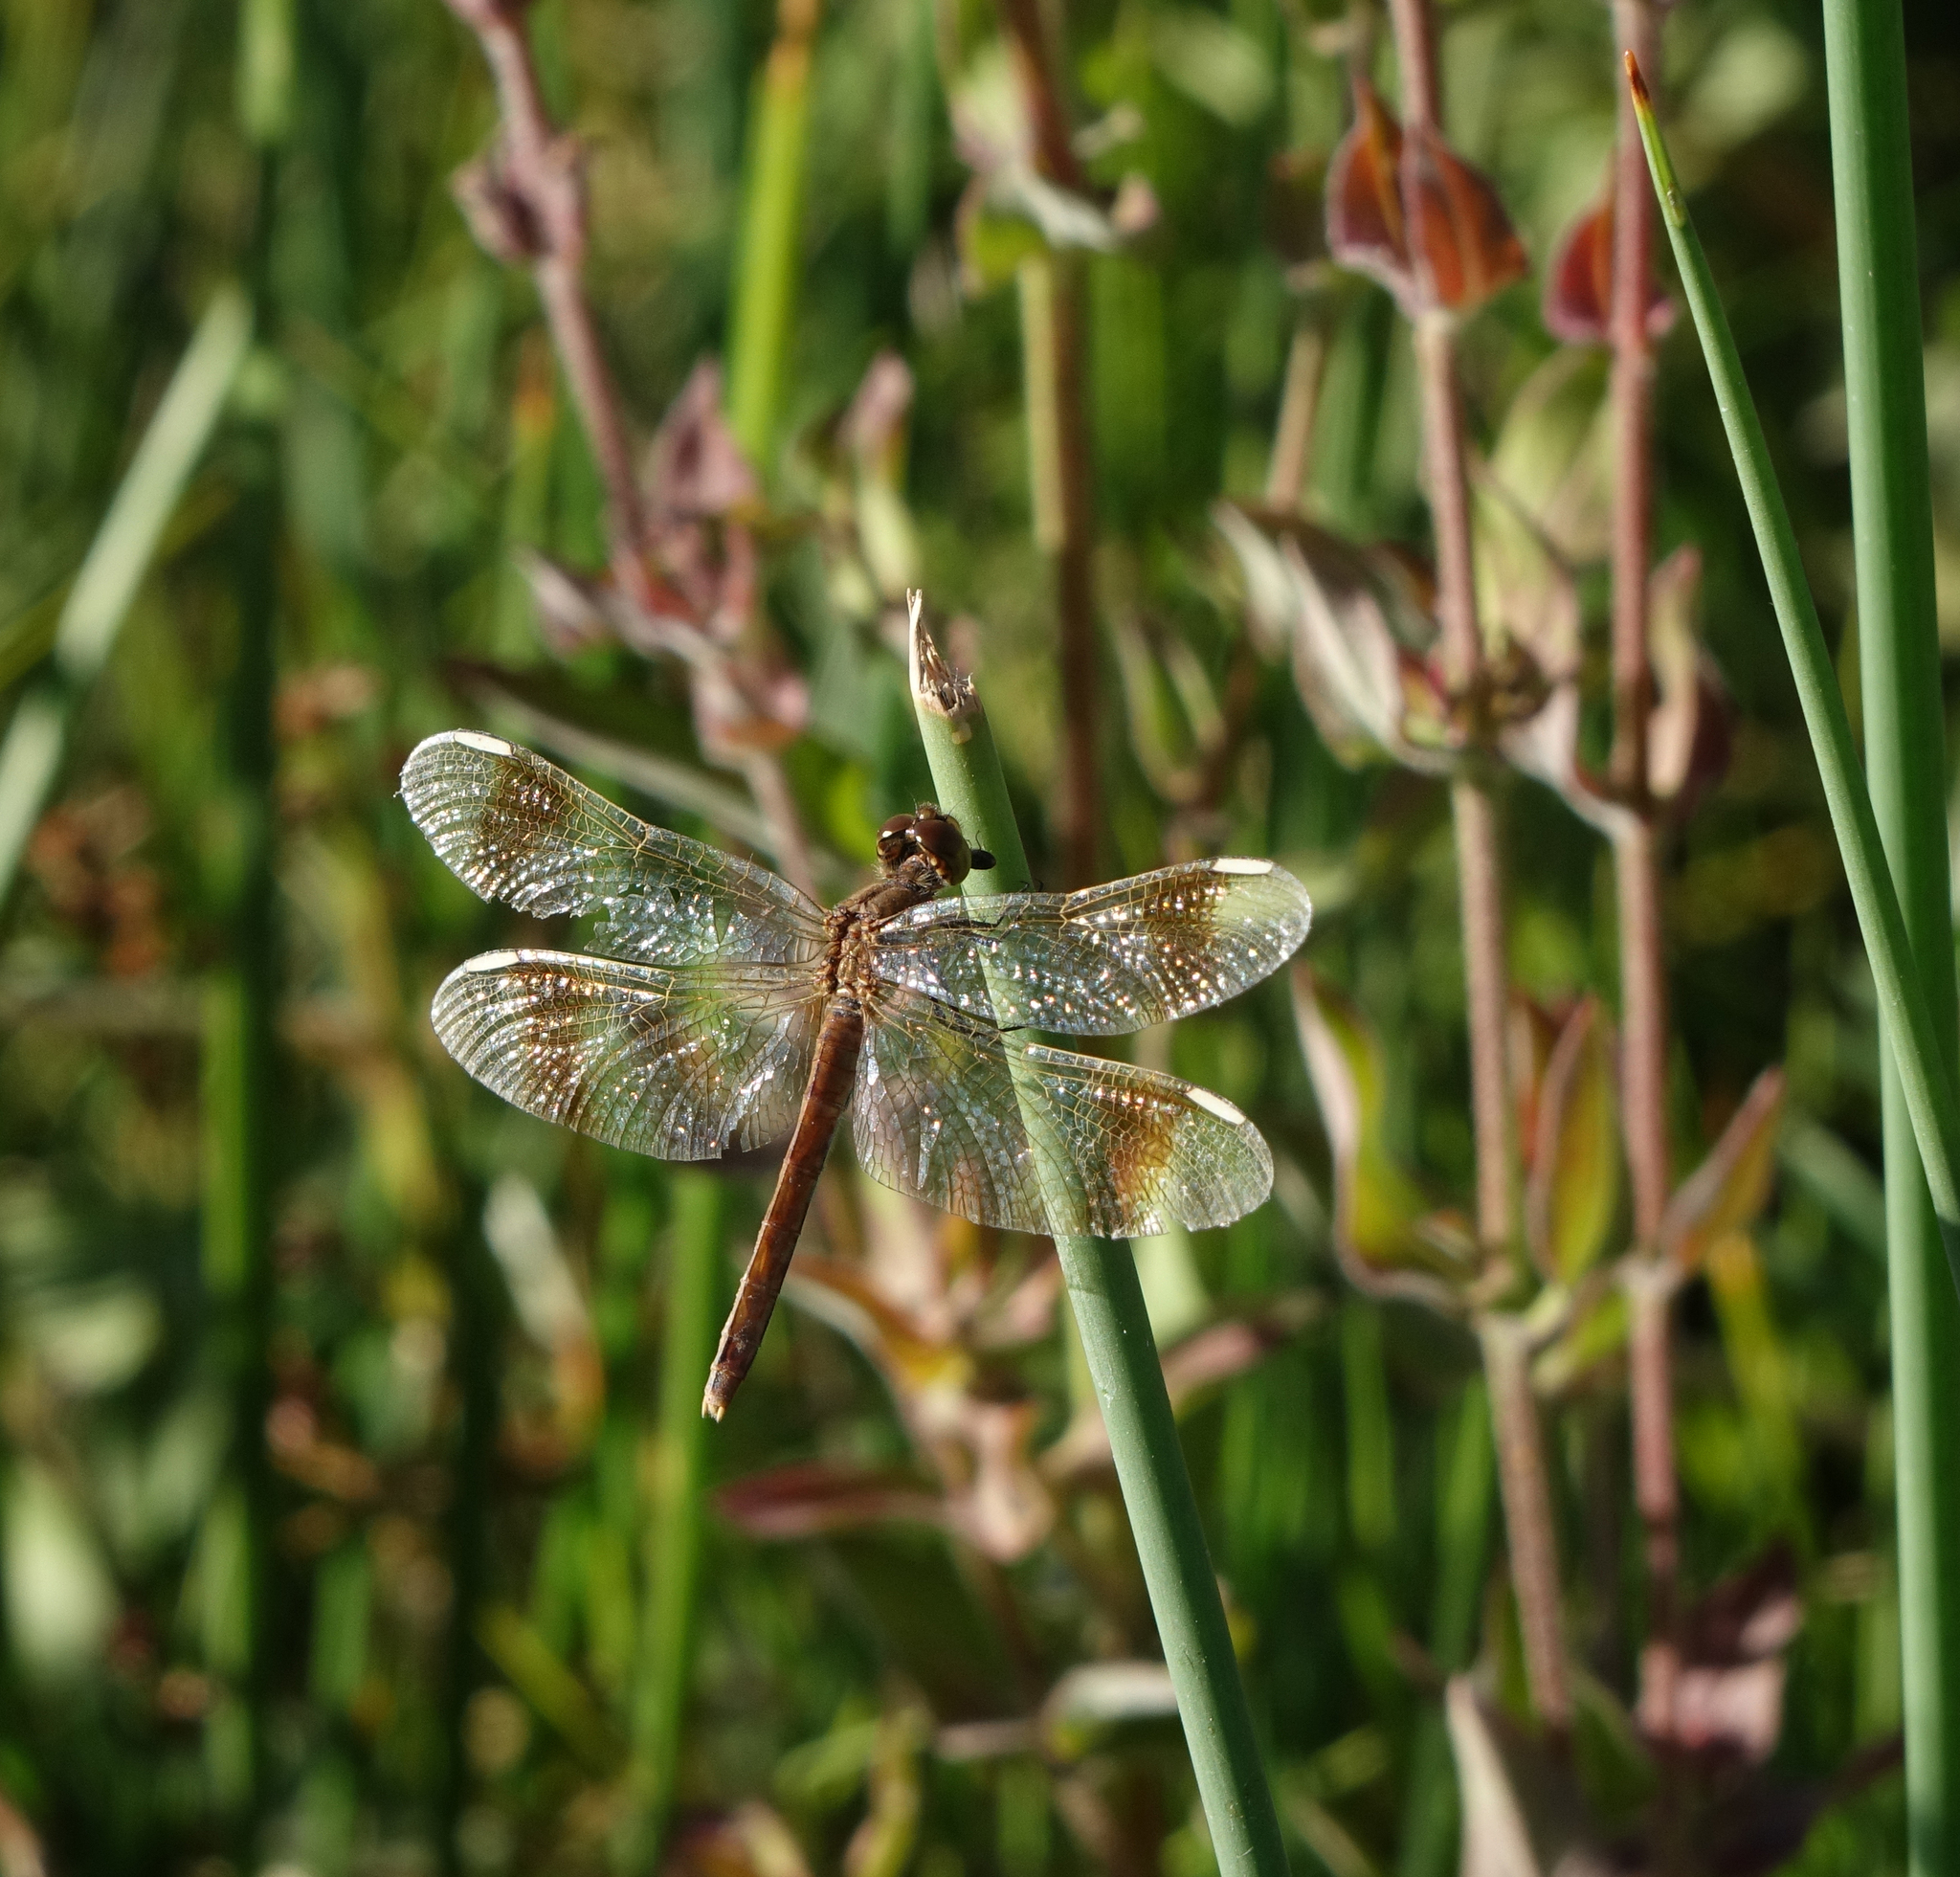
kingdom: Animalia
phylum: Arthropoda
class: Insecta
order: Odonata
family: Libellulidae
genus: Sympetrum
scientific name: Sympetrum pedemontanum
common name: Banded darter
